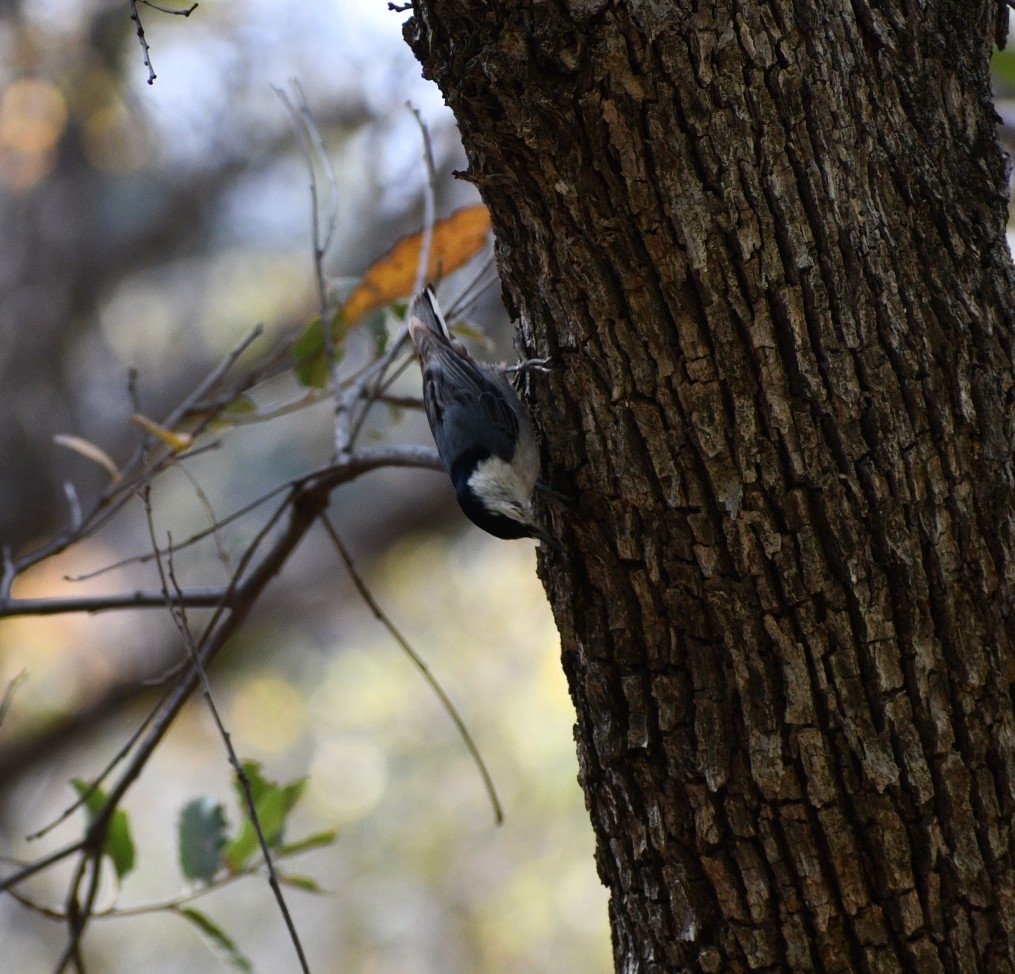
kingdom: Animalia
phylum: Chordata
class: Aves
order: Passeriformes
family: Sittidae
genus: Sitta
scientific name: Sitta carolinensis
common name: White-breasted nuthatch
